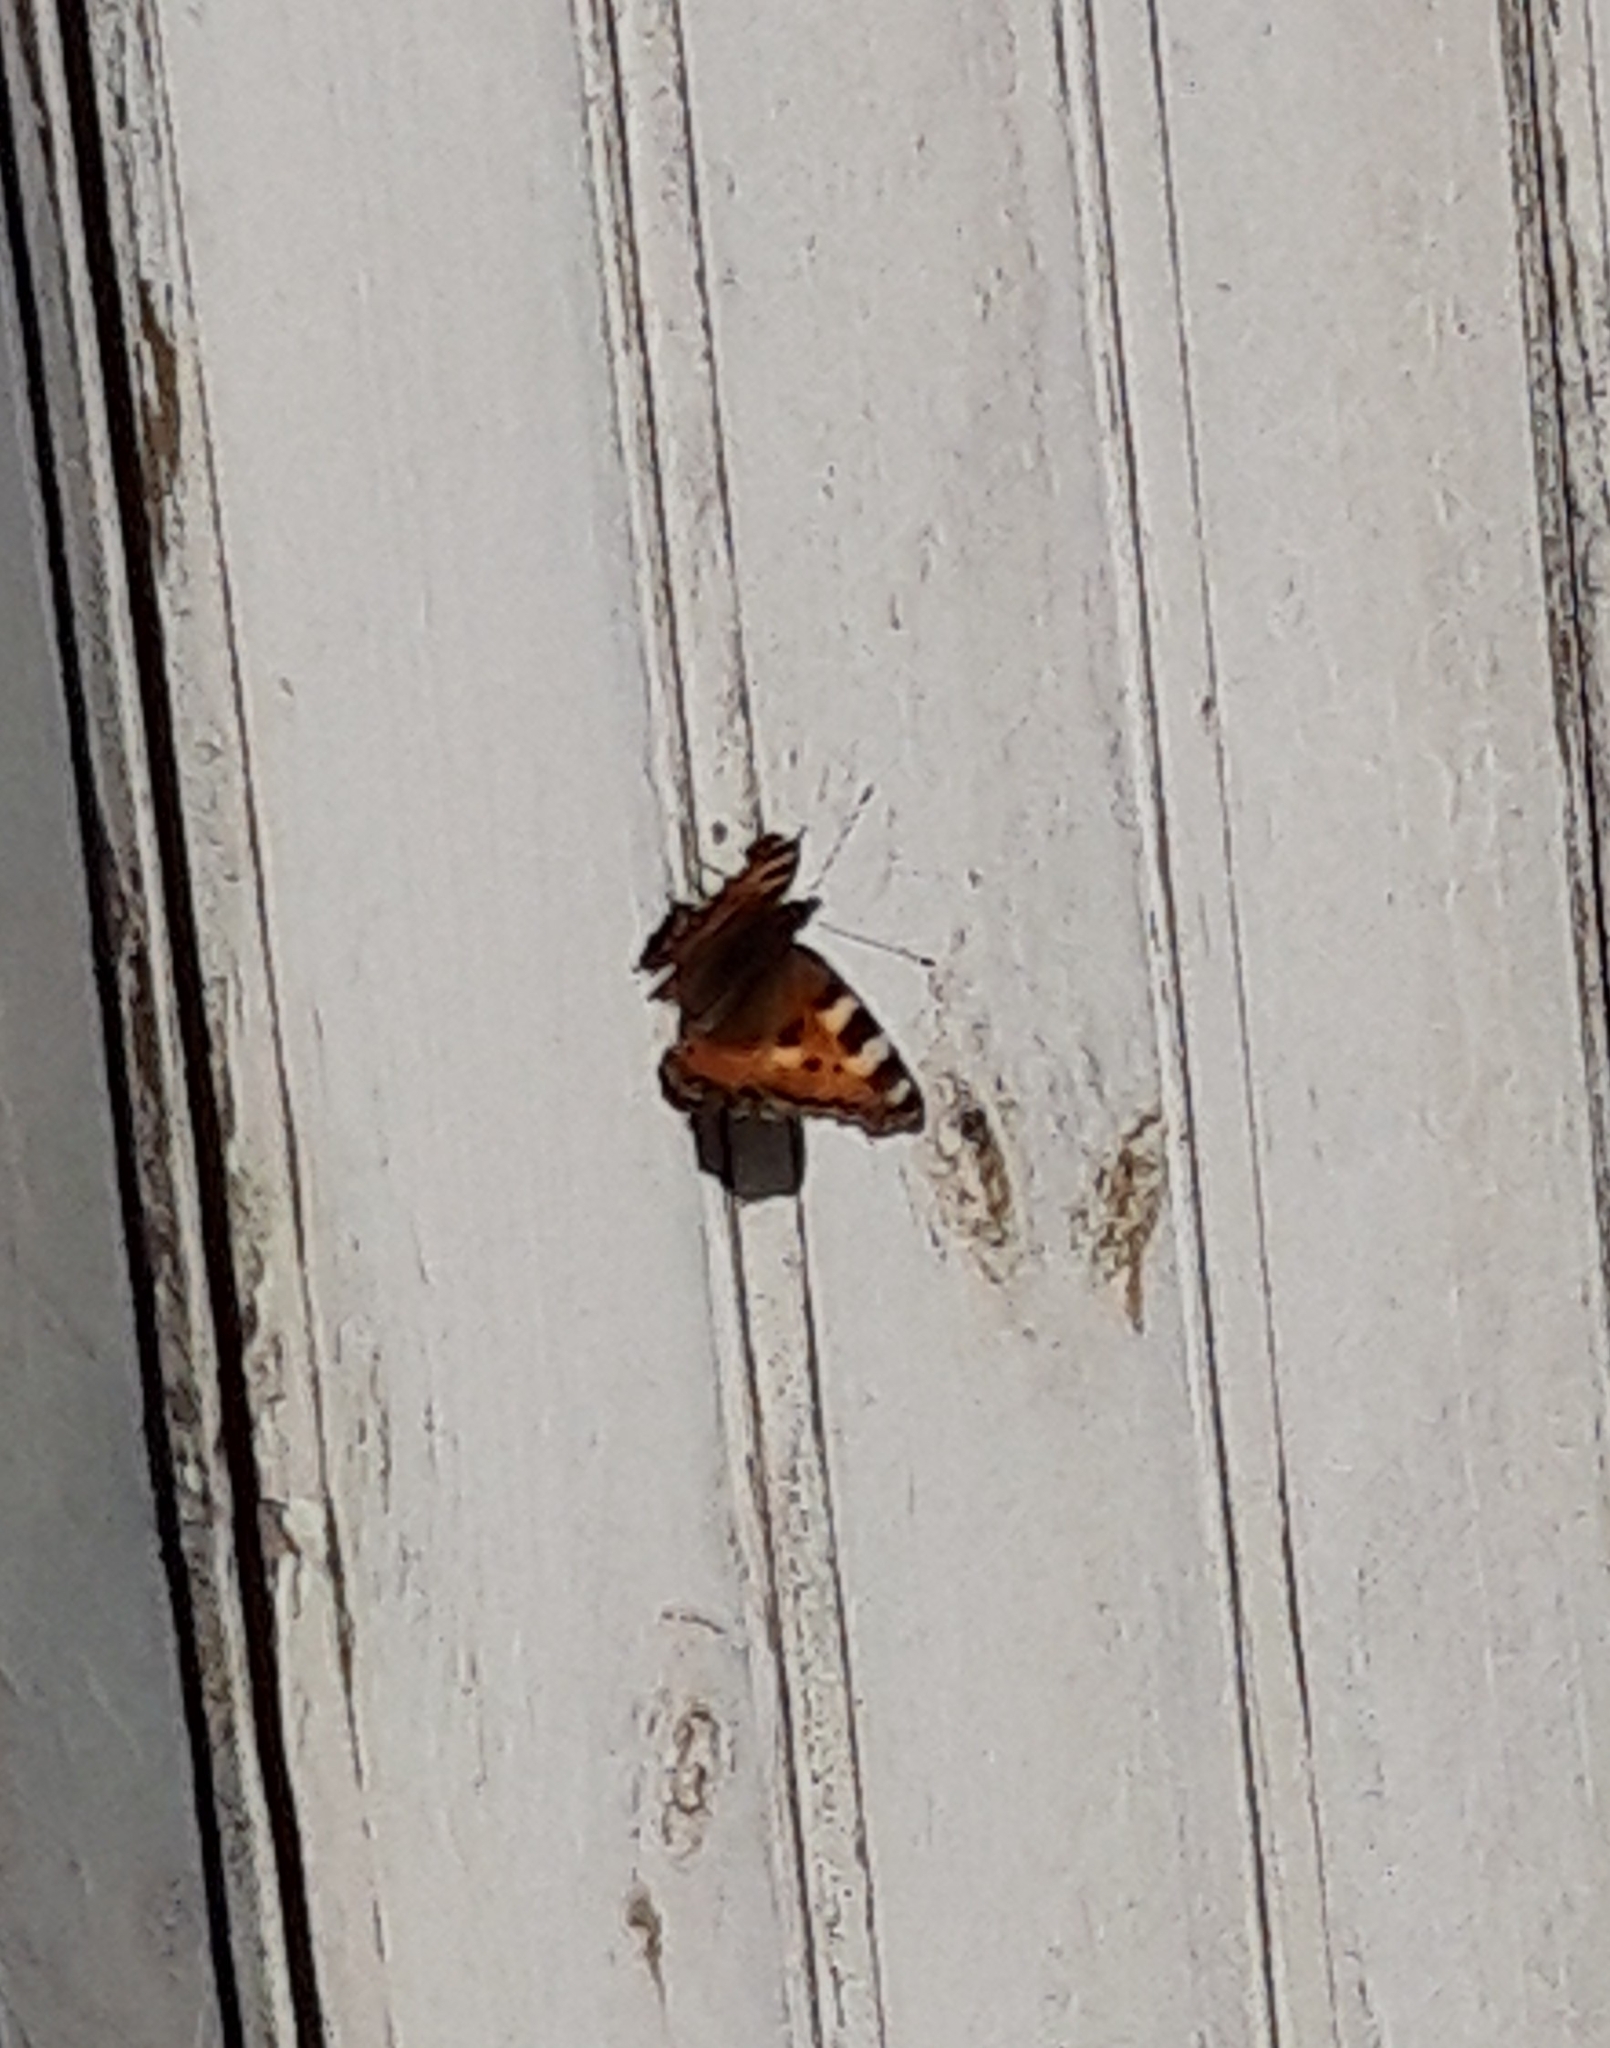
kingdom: Animalia
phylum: Arthropoda
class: Insecta
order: Lepidoptera
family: Nymphalidae
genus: Aglais
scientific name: Aglais urticae
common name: Small tortoiseshell
